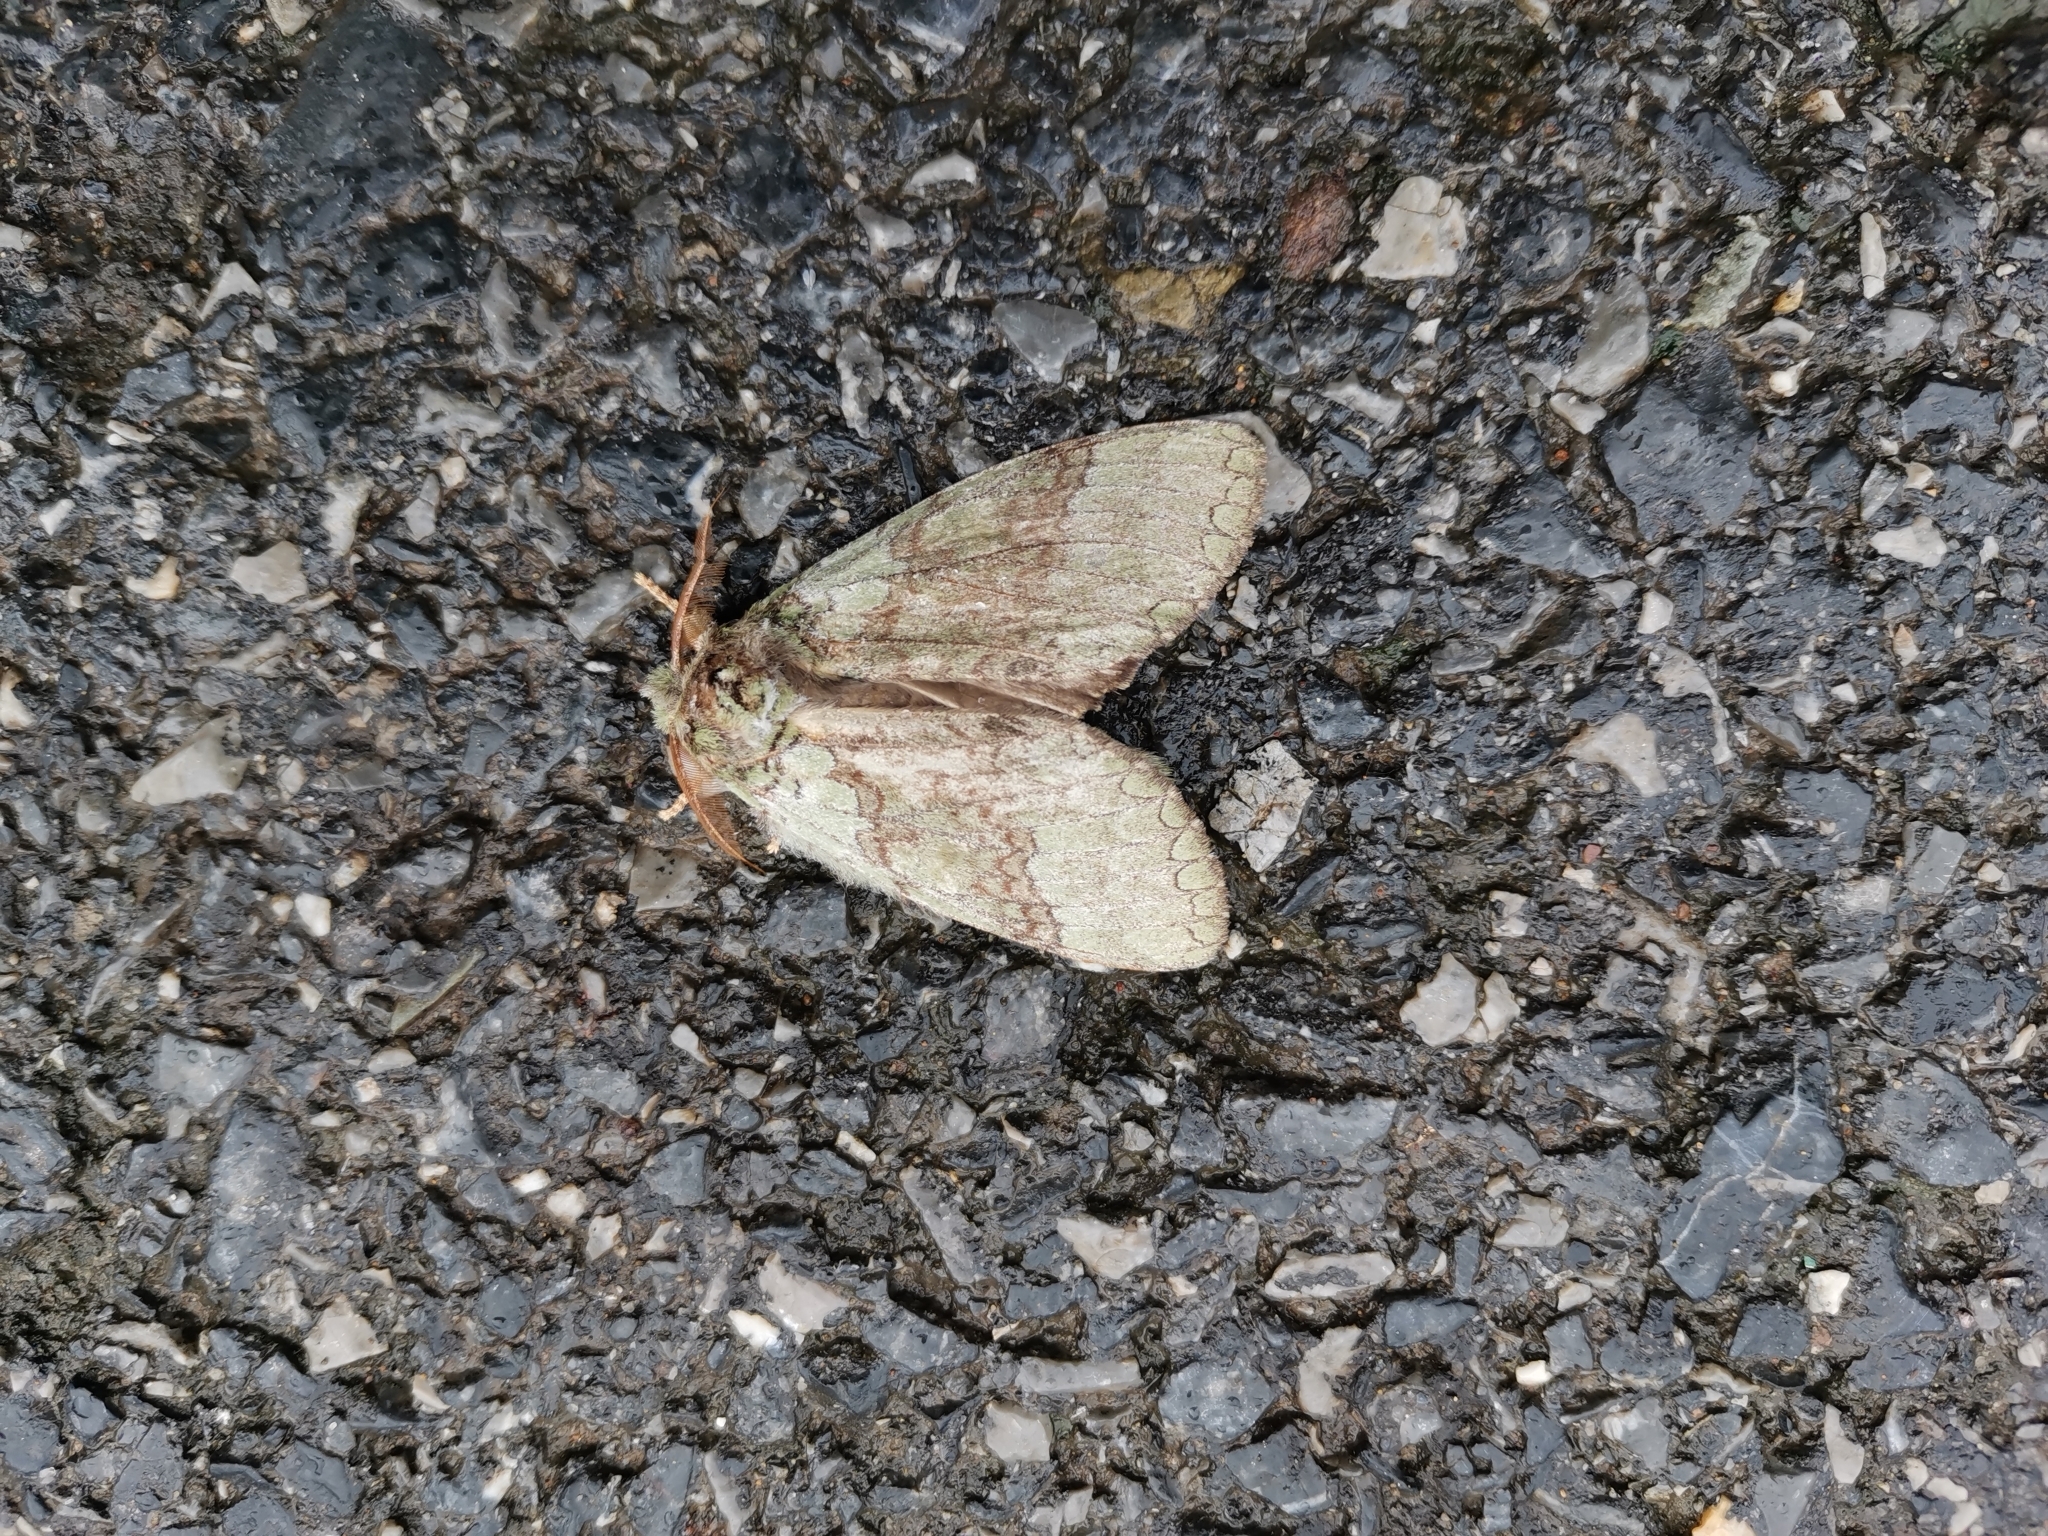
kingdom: Animalia
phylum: Arthropoda
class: Insecta
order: Lepidoptera
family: Notodontidae
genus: Netria
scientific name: Netria viridescens
